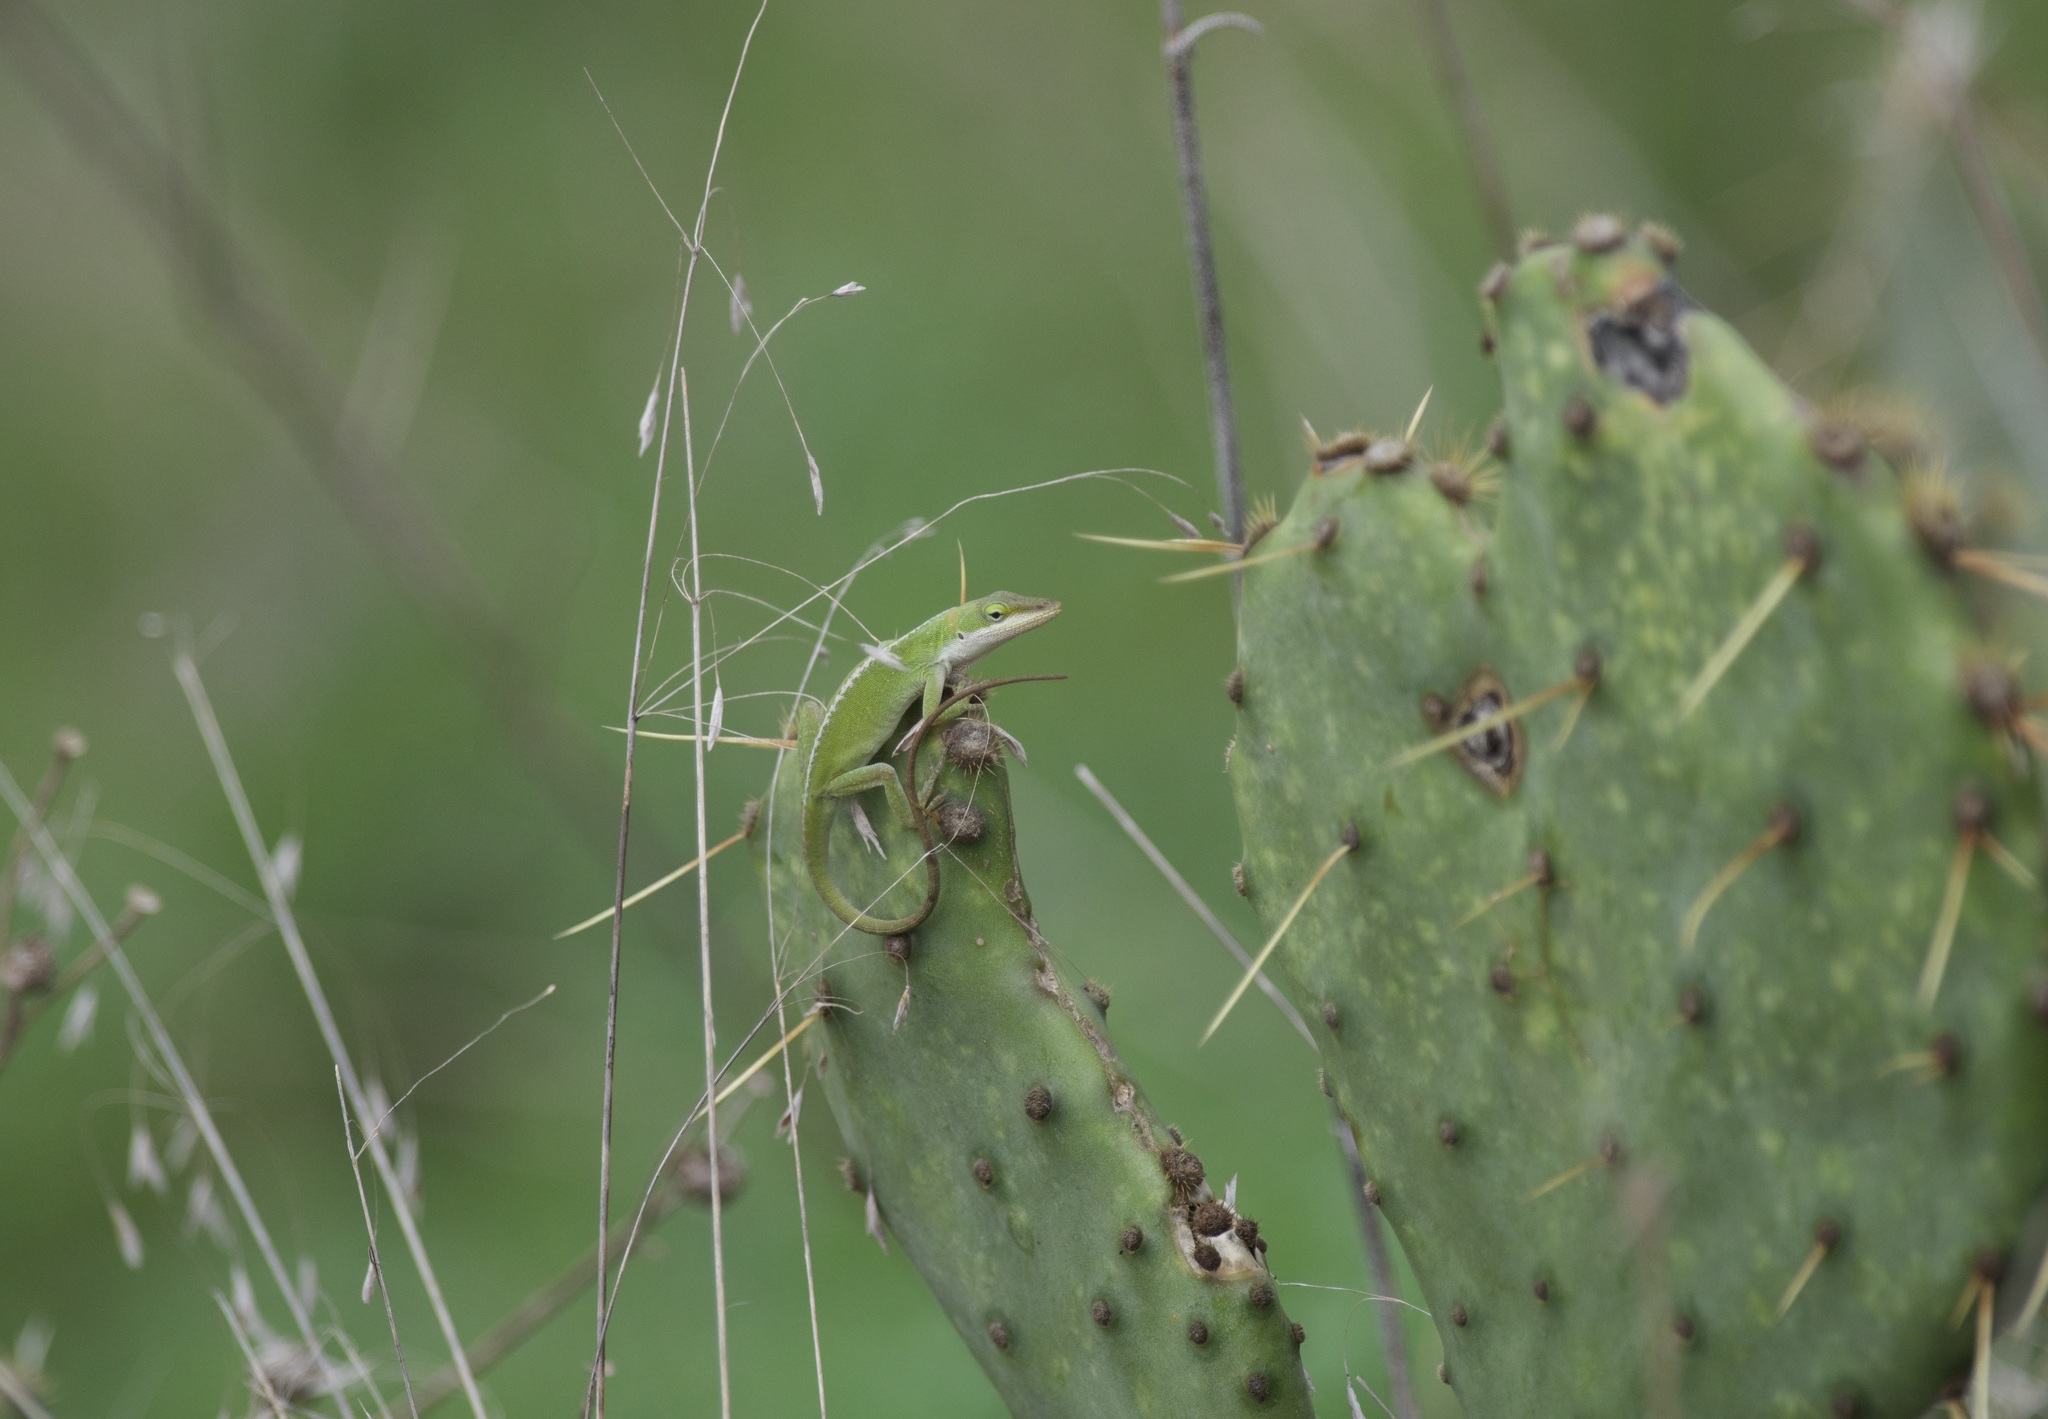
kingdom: Animalia
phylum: Chordata
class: Squamata
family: Dactyloidae
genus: Anolis
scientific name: Anolis carolinensis
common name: Green anole
